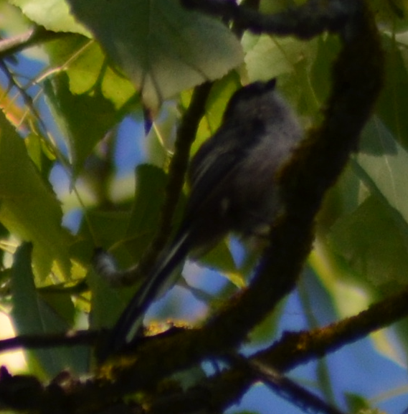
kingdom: Animalia
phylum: Chordata
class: Aves
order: Passeriformes
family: Aegithalidae
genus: Aegithalos
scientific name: Aegithalos caudatus
